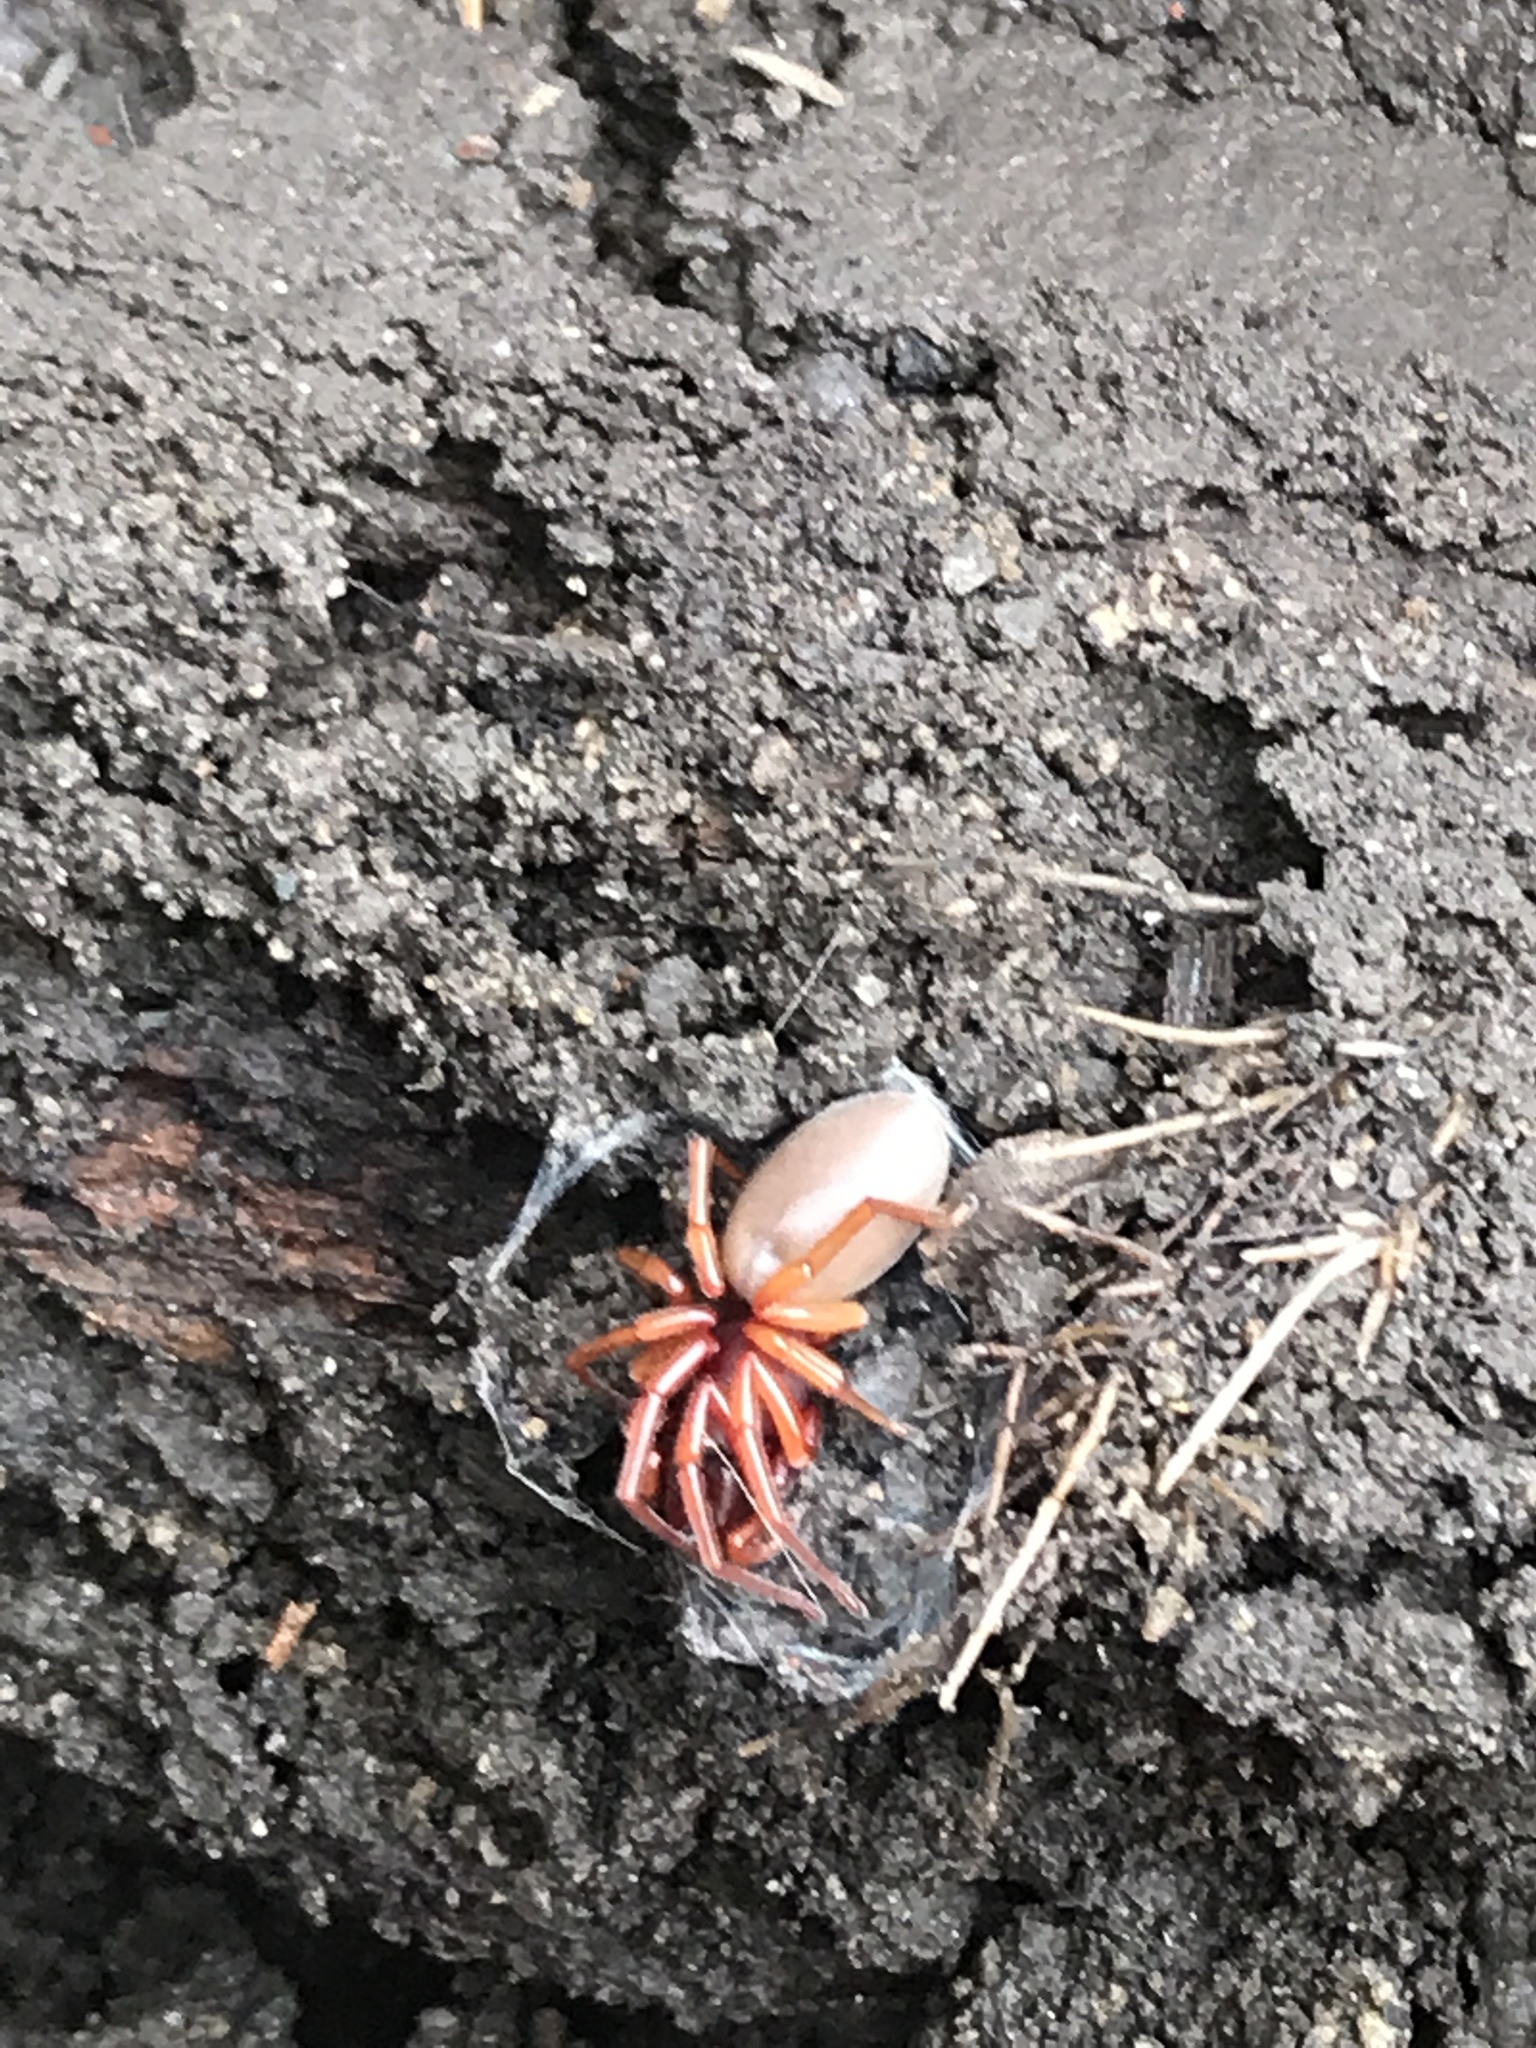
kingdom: Animalia
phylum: Arthropoda
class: Arachnida
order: Araneae
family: Dysderidae
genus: Dysdera
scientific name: Dysdera crocata
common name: Woodlouse spider
